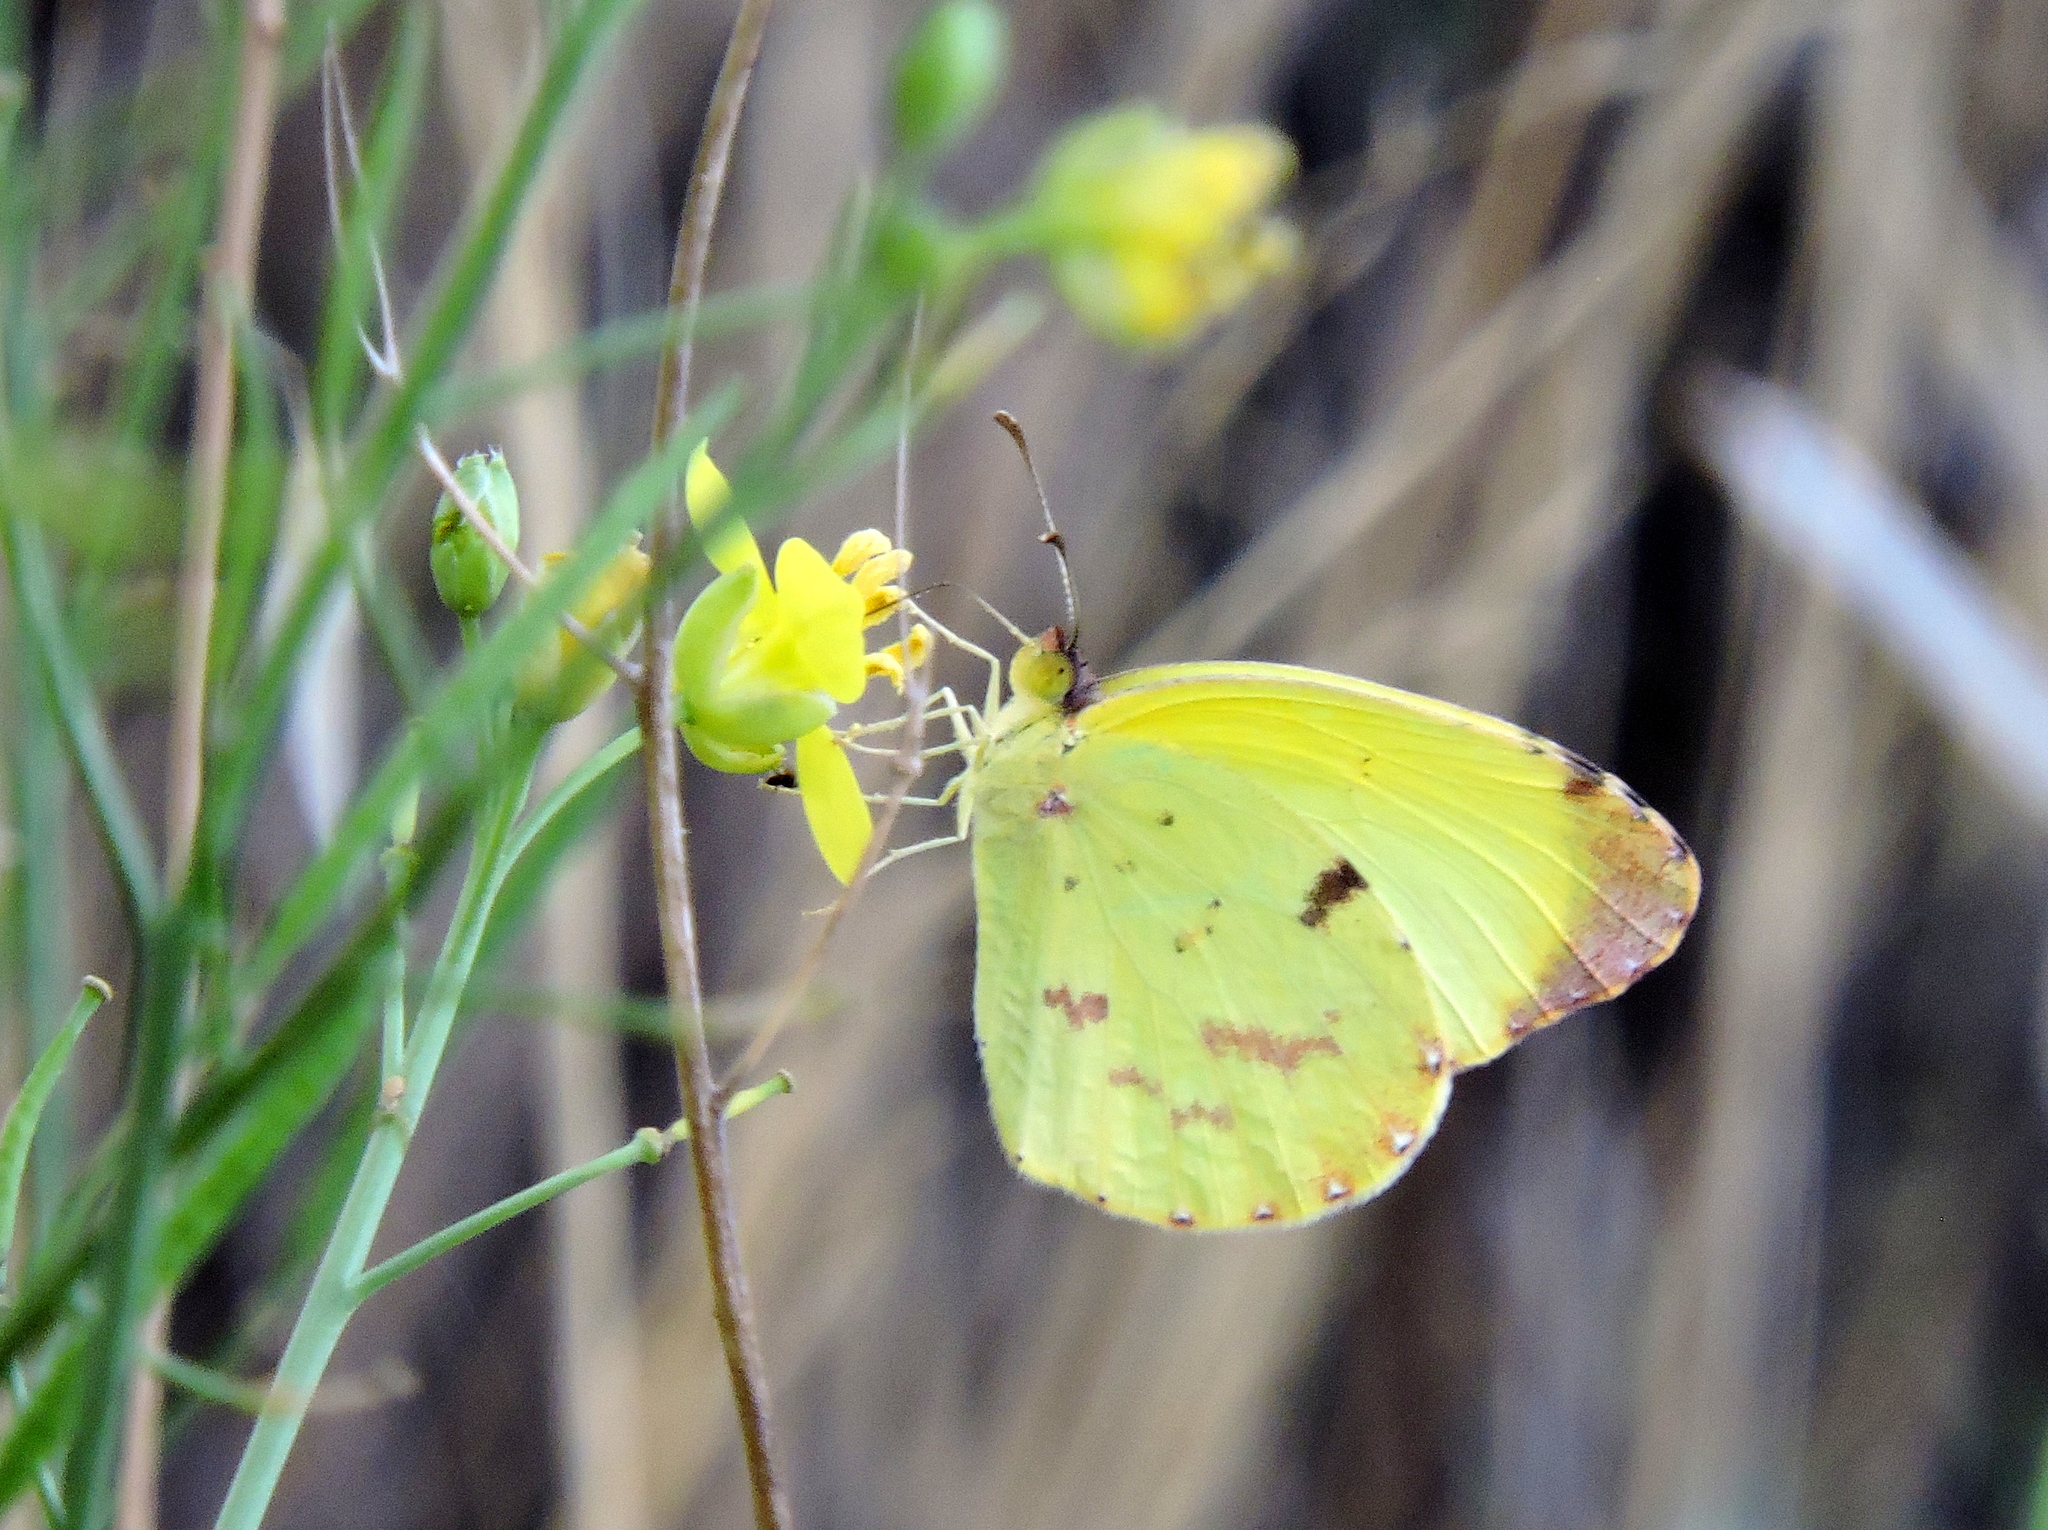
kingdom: Animalia
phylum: Arthropoda
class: Insecta
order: Lepidoptera
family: Pieridae
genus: Teriocolias
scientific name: Teriocolias
